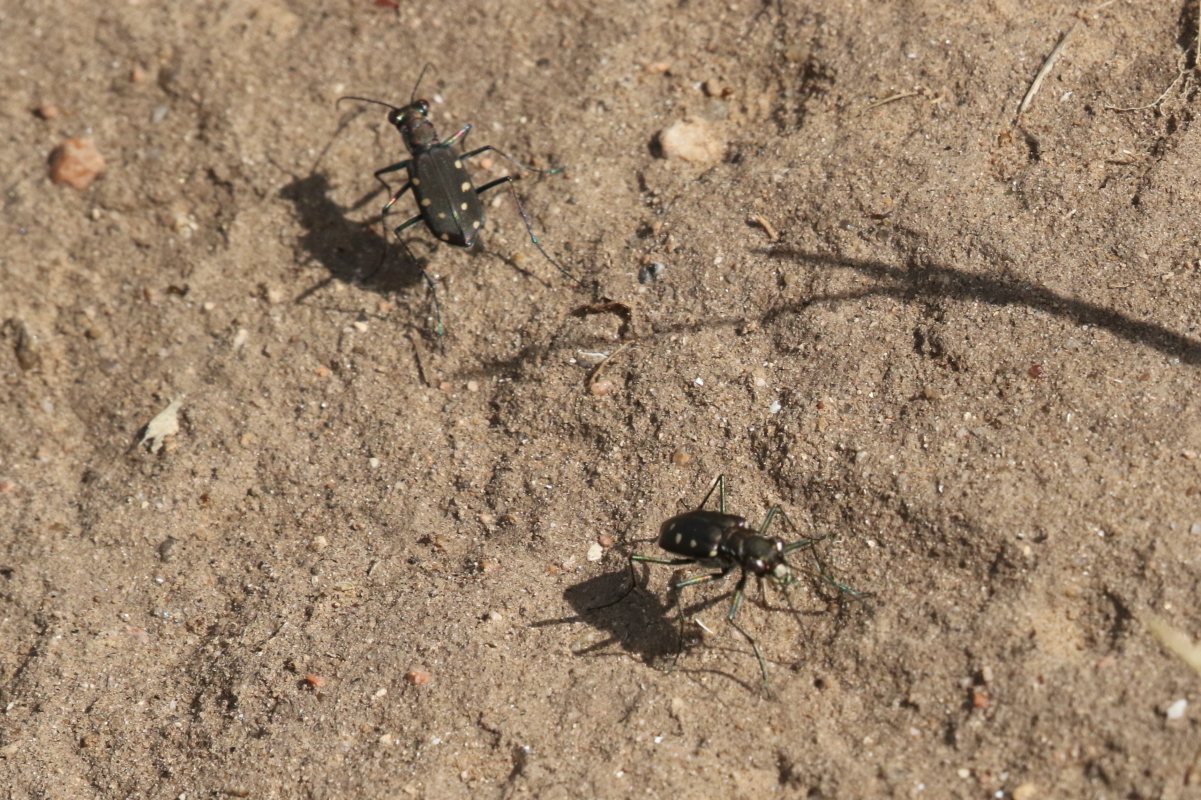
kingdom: Animalia
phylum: Arthropoda
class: Insecta
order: Coleoptera
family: Carabidae
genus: Cicindela
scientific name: Cicindela ocellata
